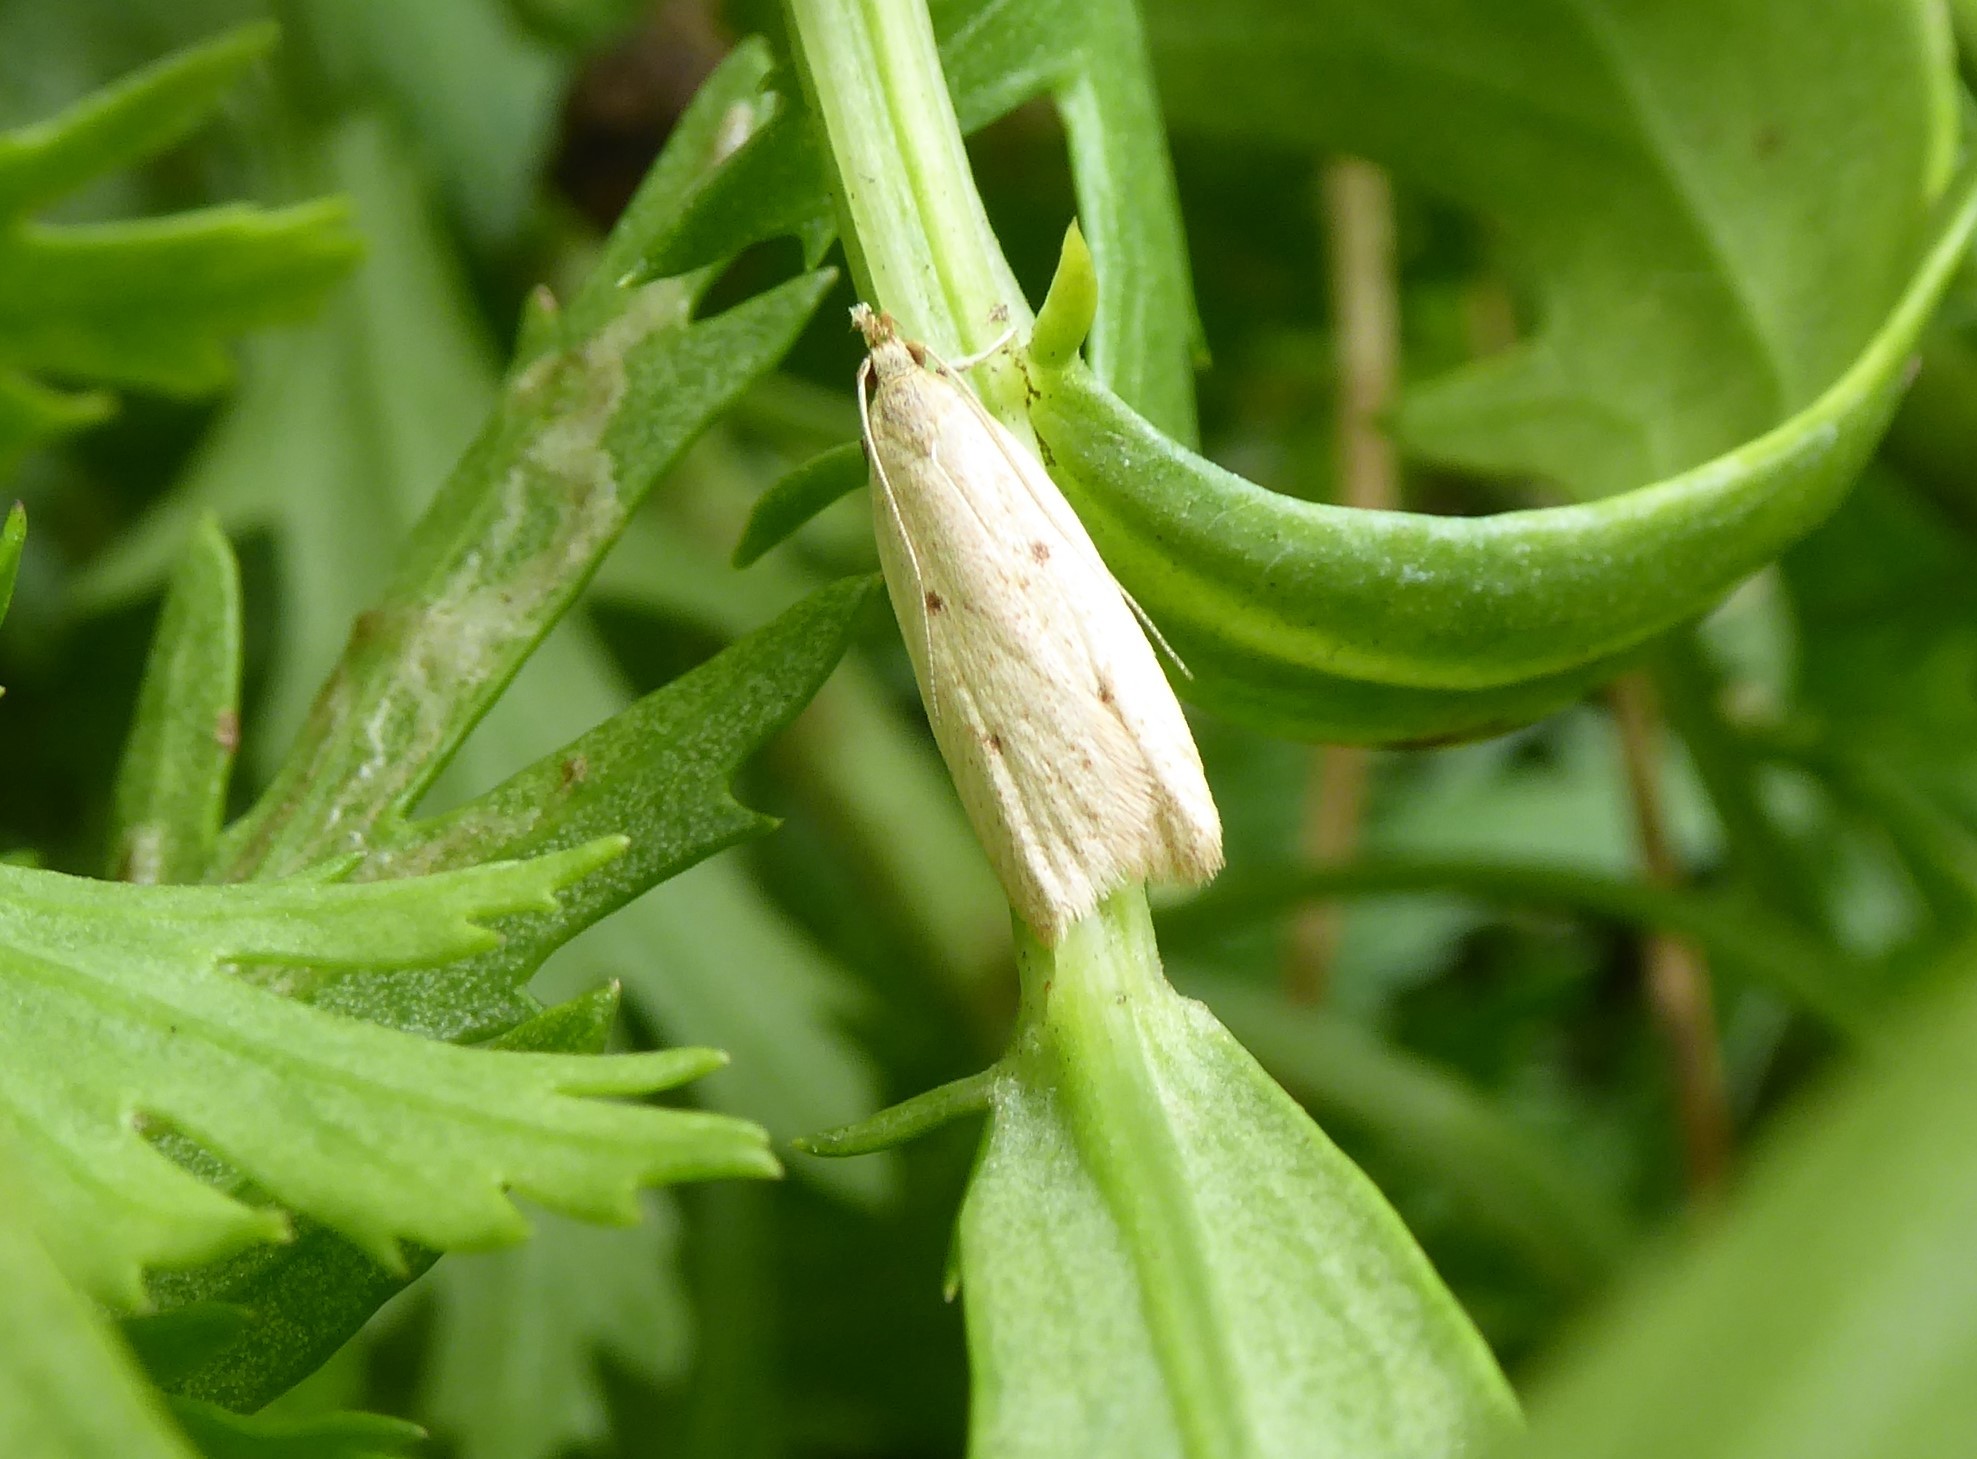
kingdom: Animalia
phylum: Arthropoda
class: Insecta
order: Lepidoptera
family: Oecophoridae
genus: Gymnobathra
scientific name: Gymnobathra sarcoxantha
